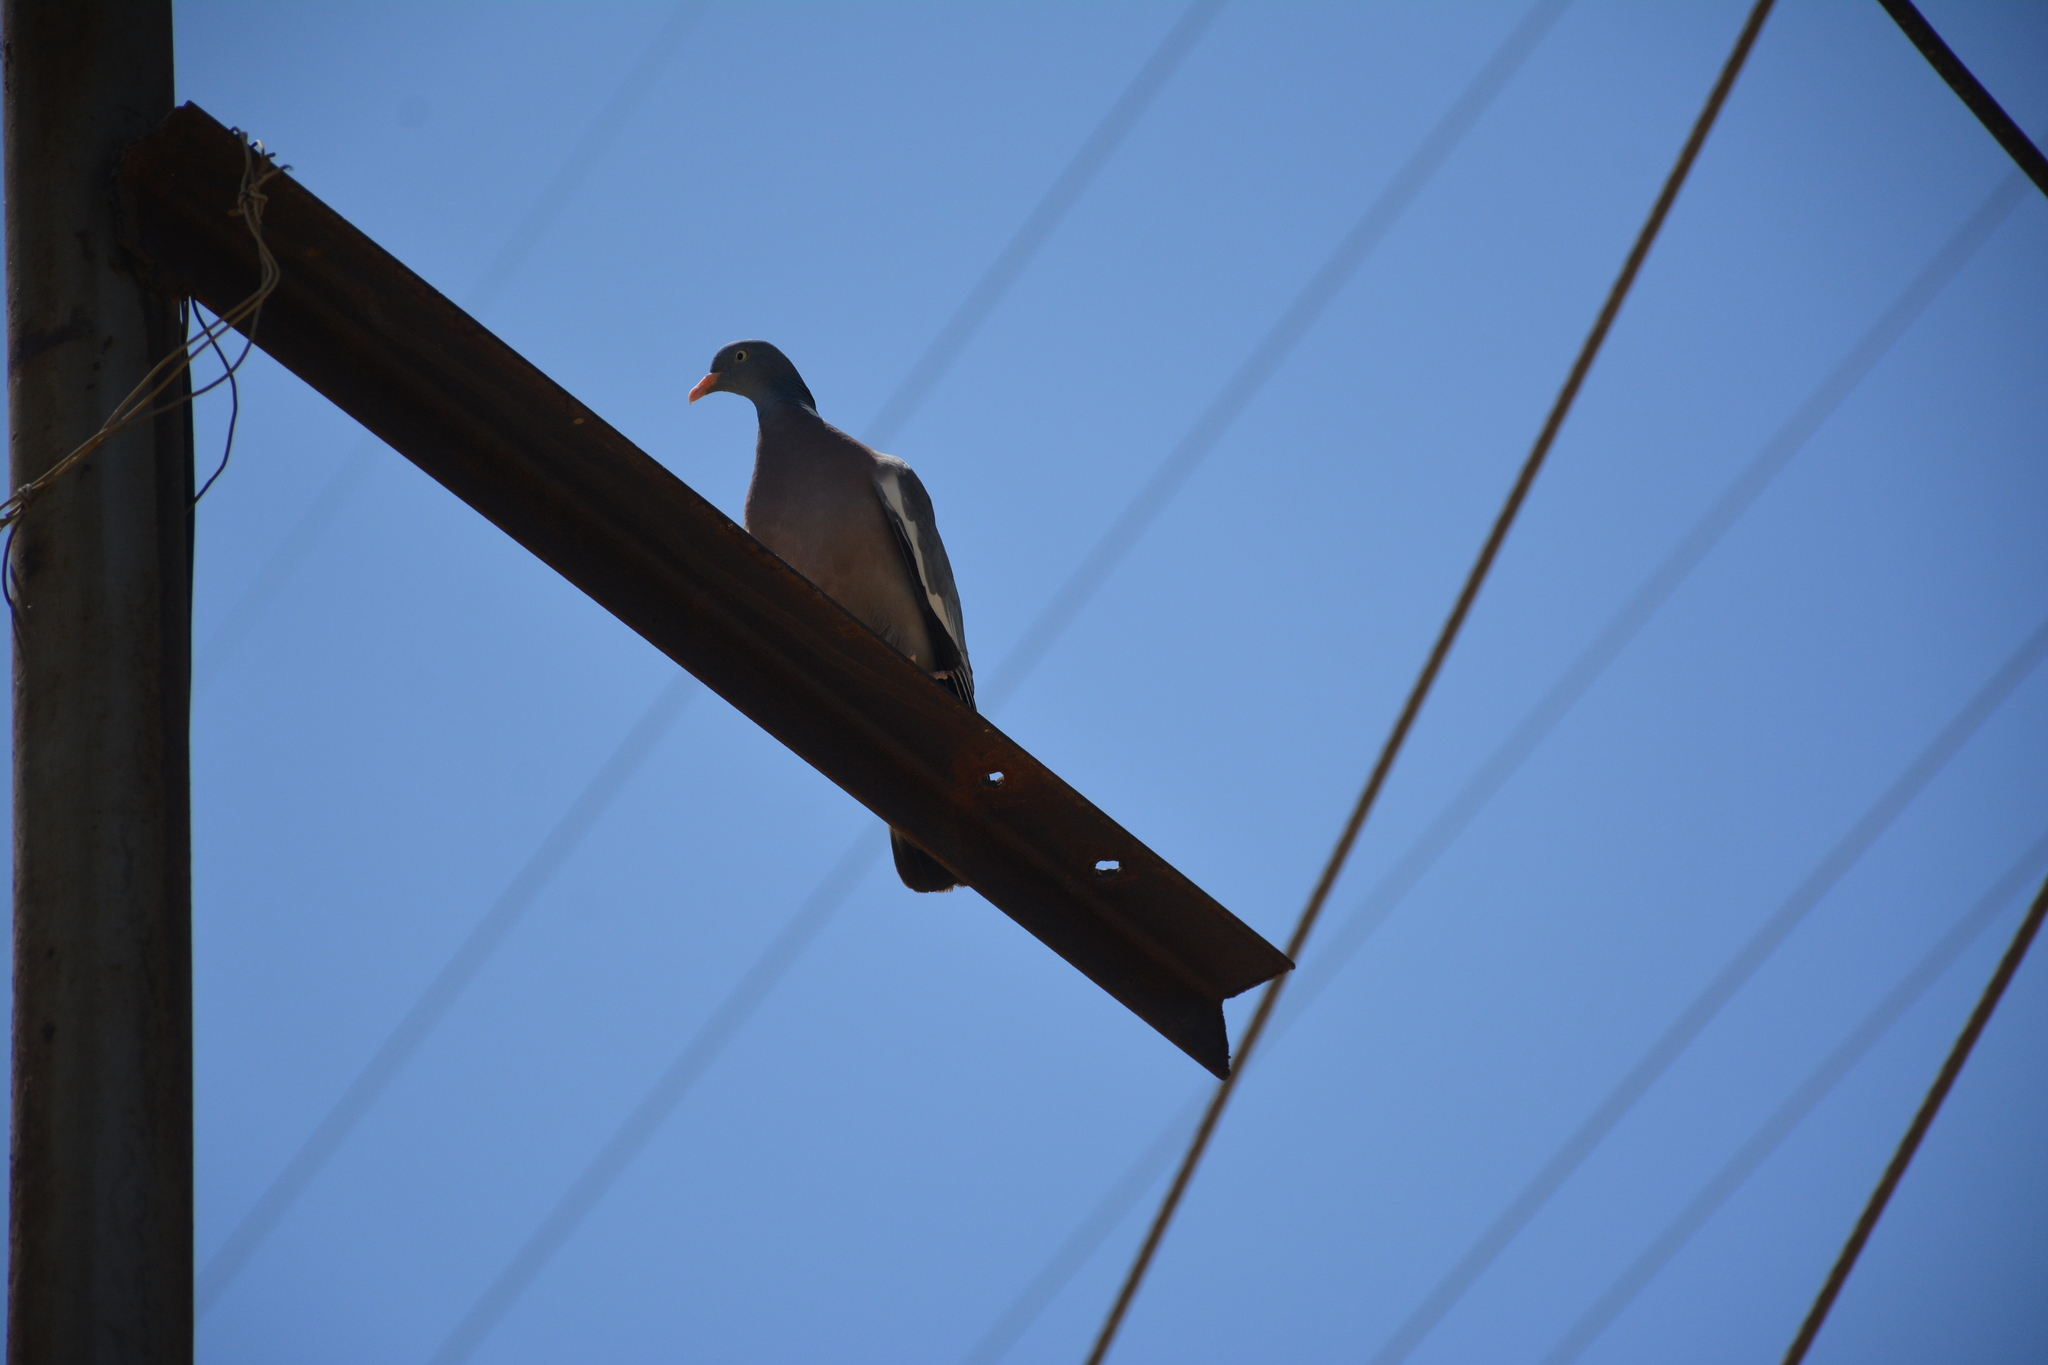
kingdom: Animalia
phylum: Chordata
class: Aves
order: Columbiformes
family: Columbidae
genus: Columba
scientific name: Columba palumbus
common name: Common wood pigeon
